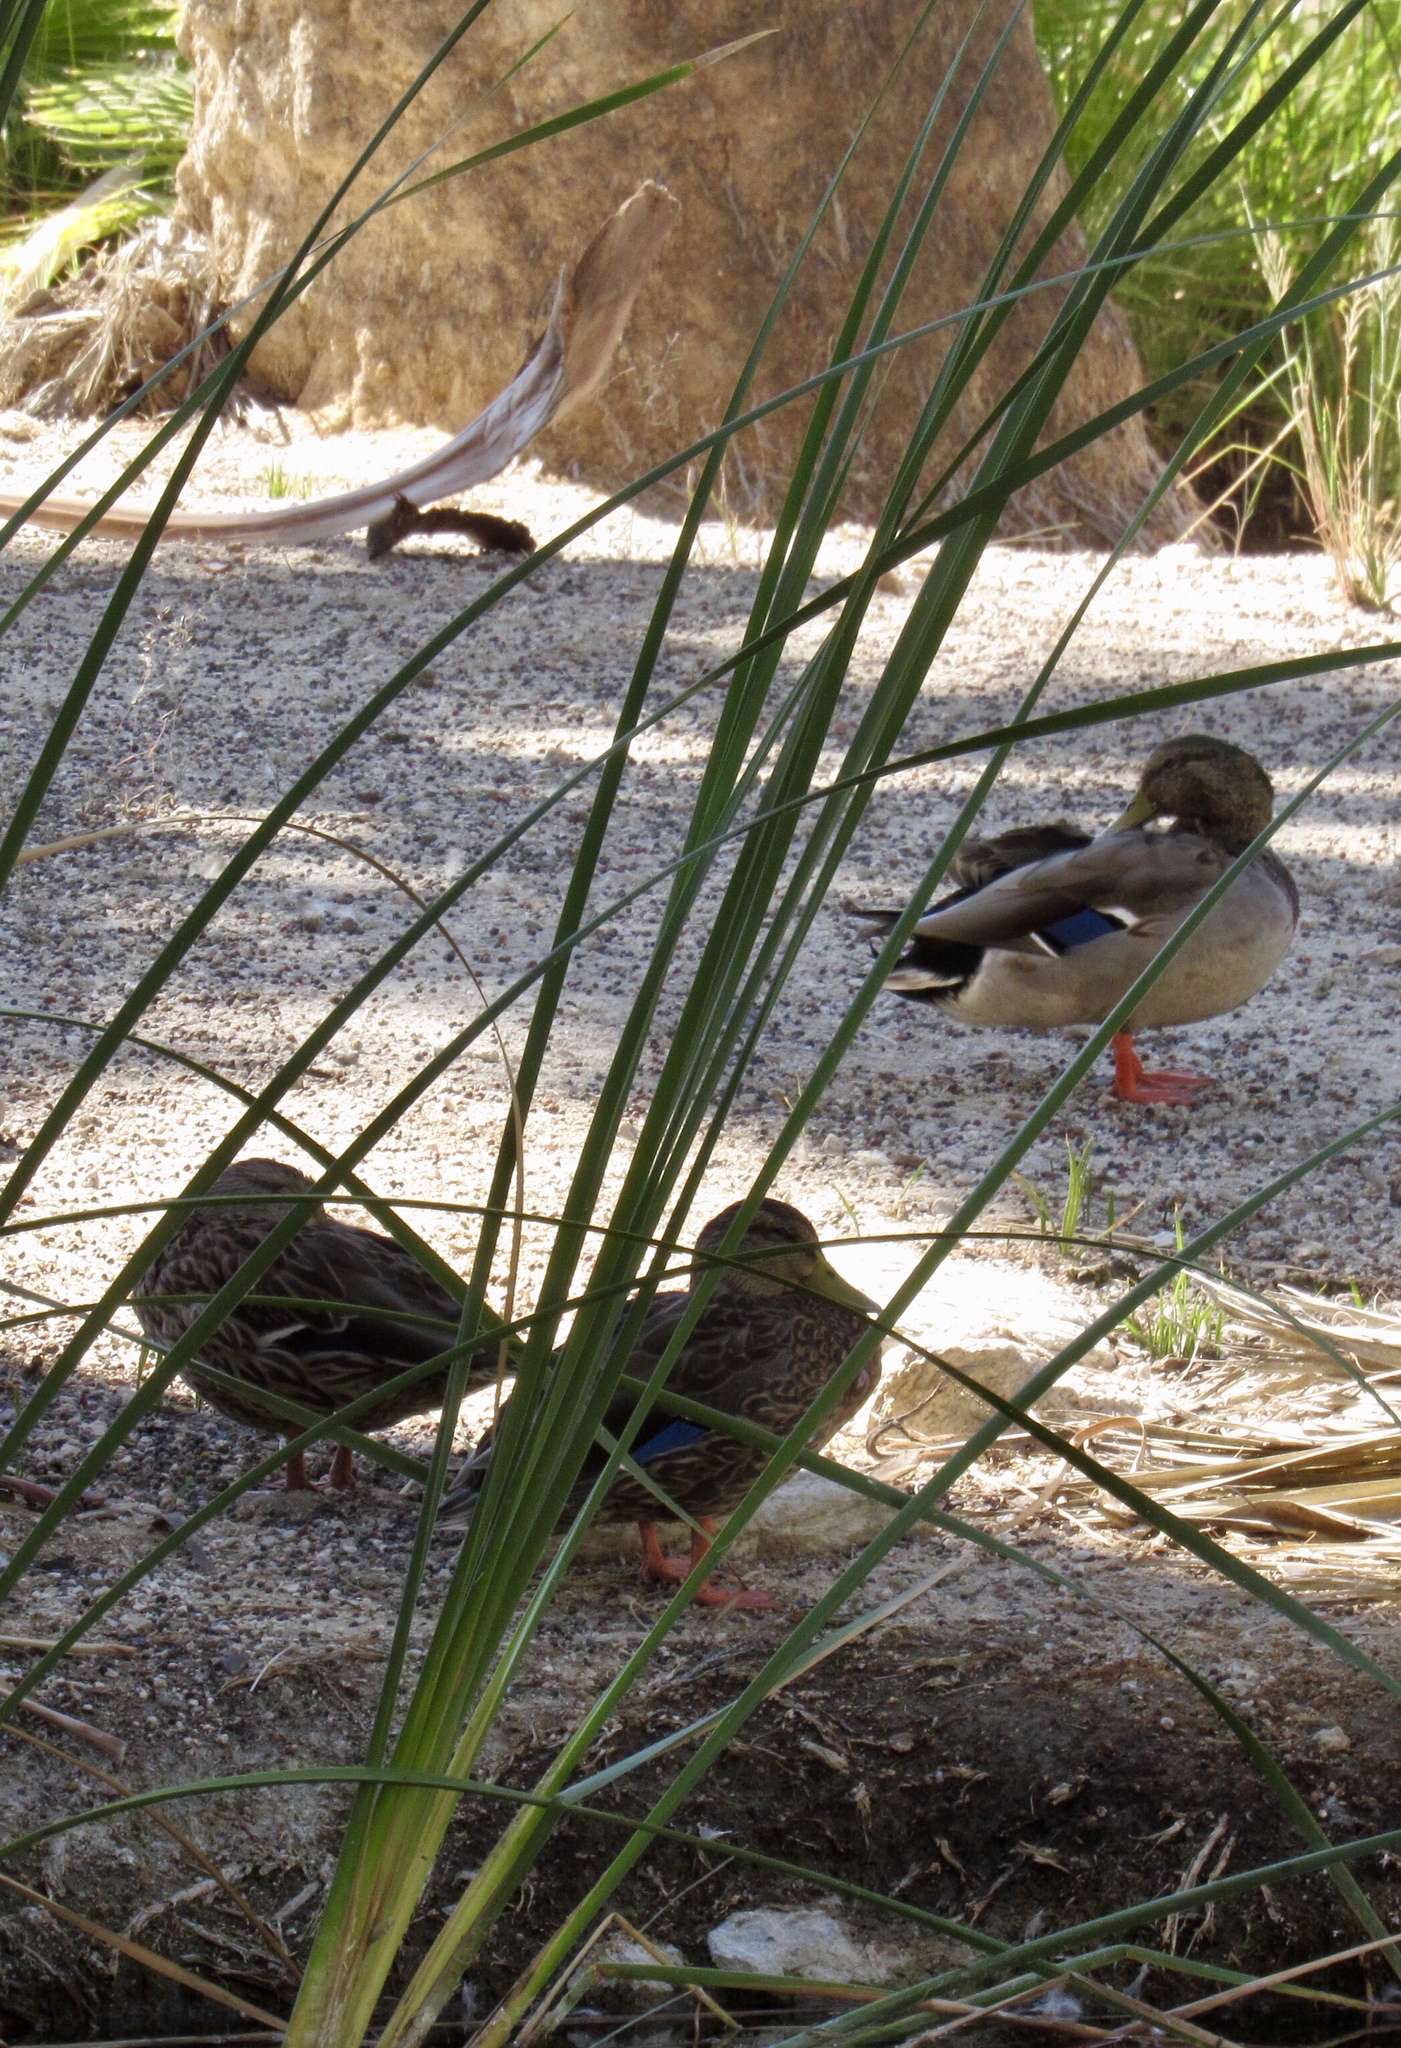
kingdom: Animalia
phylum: Chordata
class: Aves
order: Anseriformes
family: Anatidae
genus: Anas
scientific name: Anas platyrhynchos
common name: Mallard
